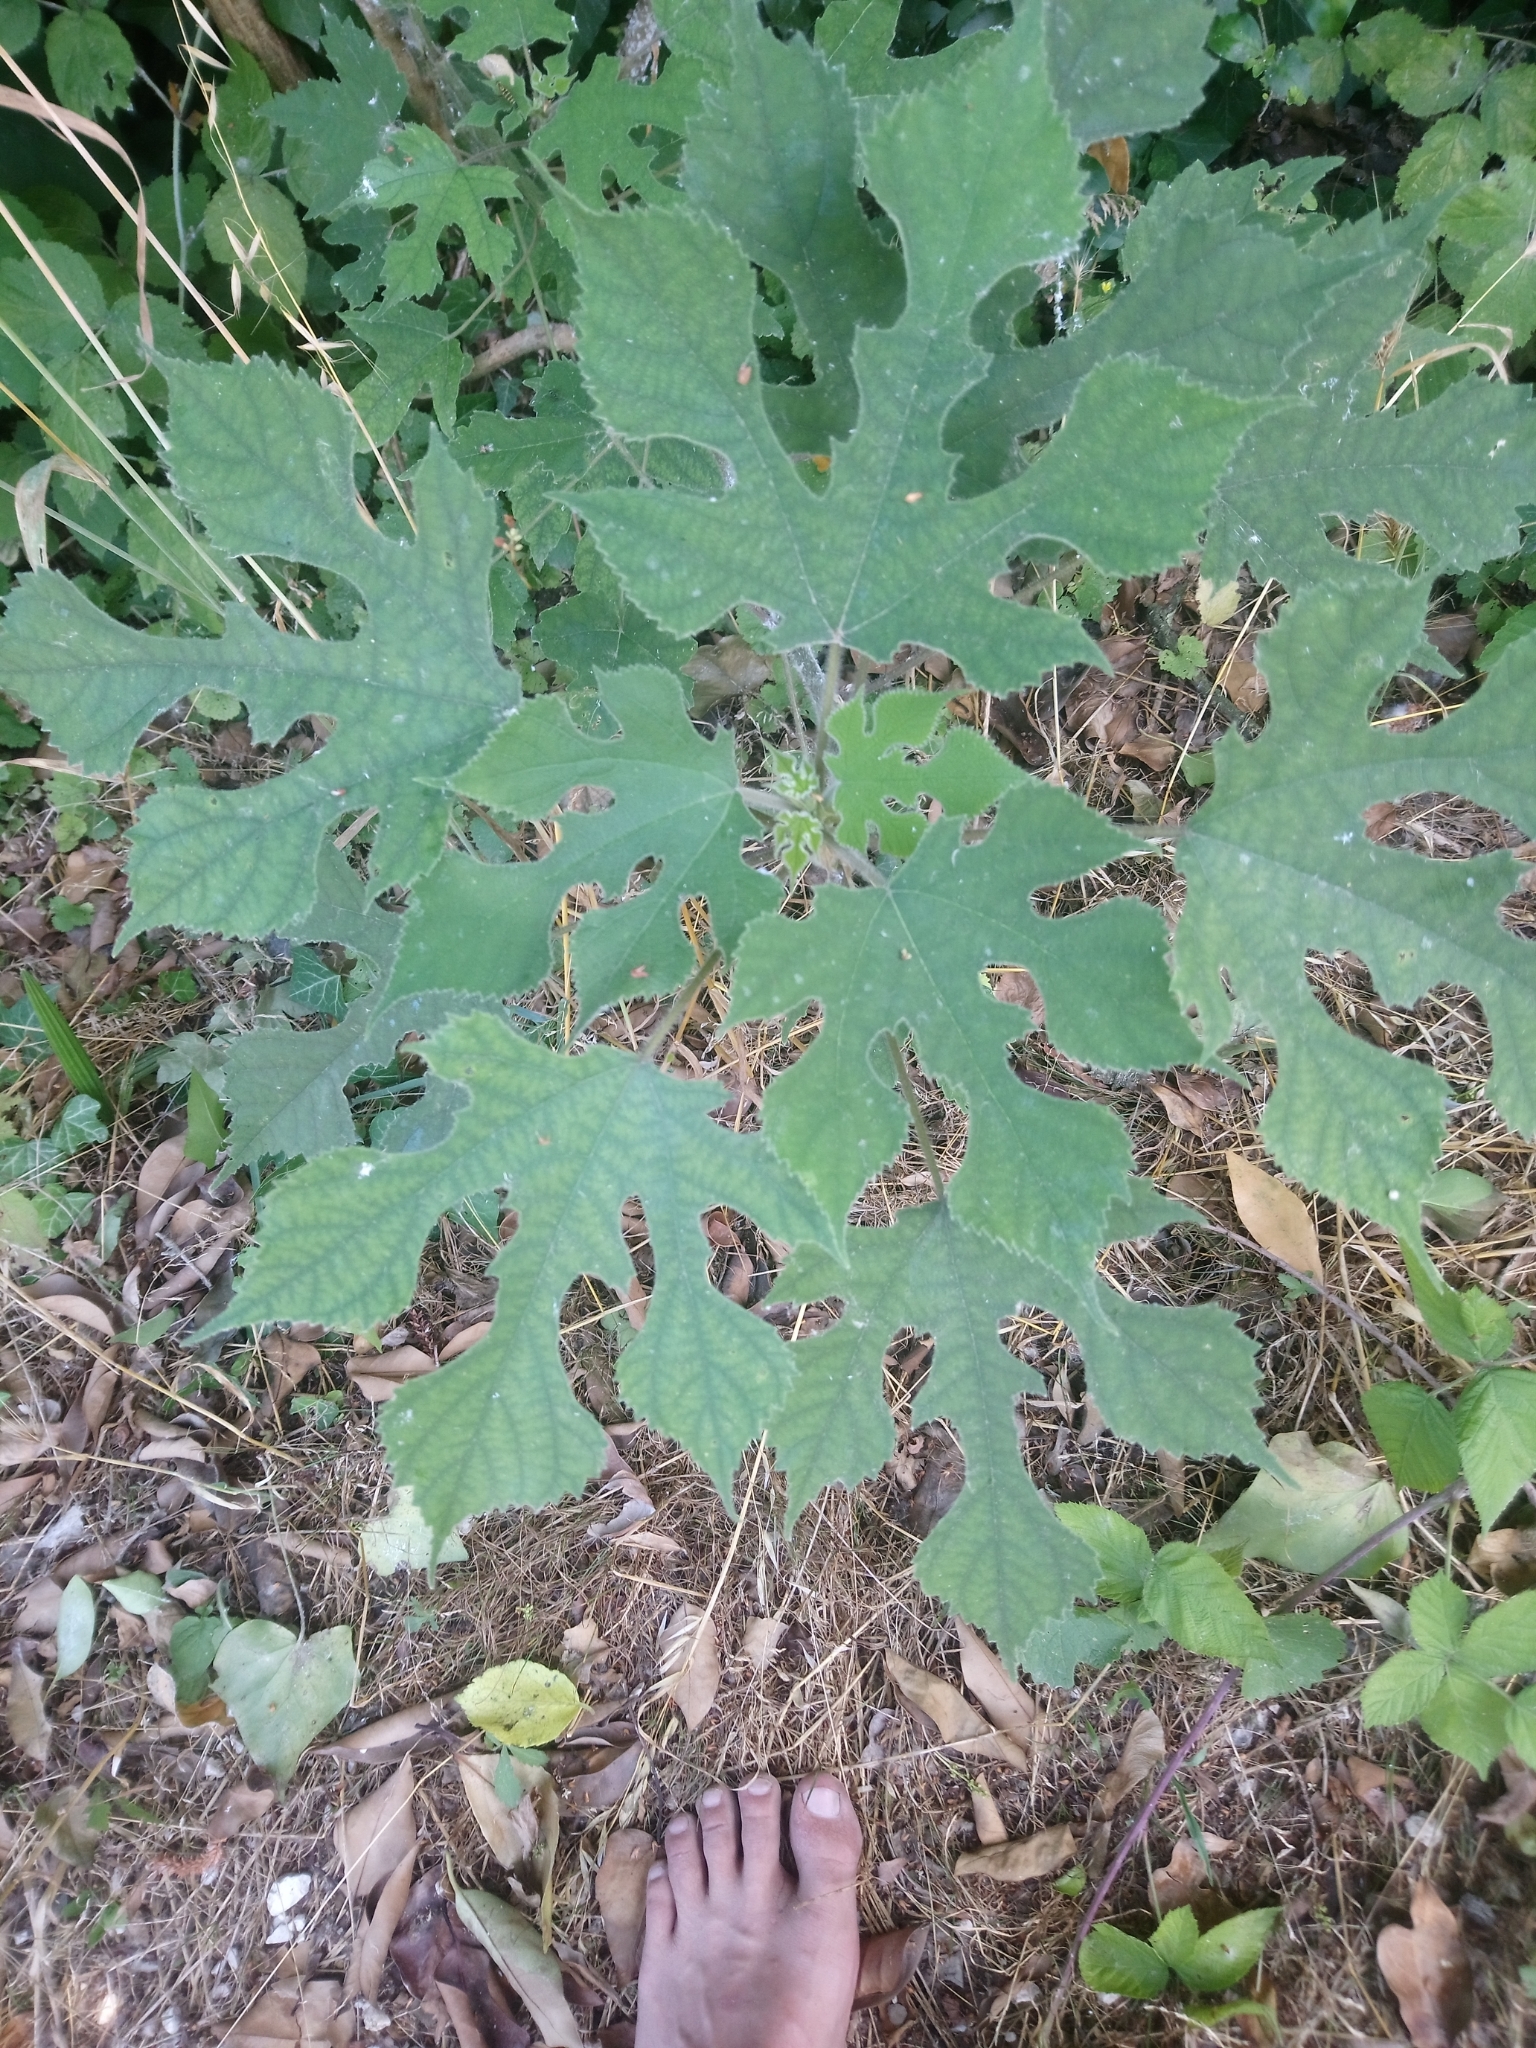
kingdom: Plantae
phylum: Tracheophyta
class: Magnoliopsida
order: Rosales
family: Moraceae
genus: Broussonetia
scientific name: Broussonetia papyrifera
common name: Paper mulberry
